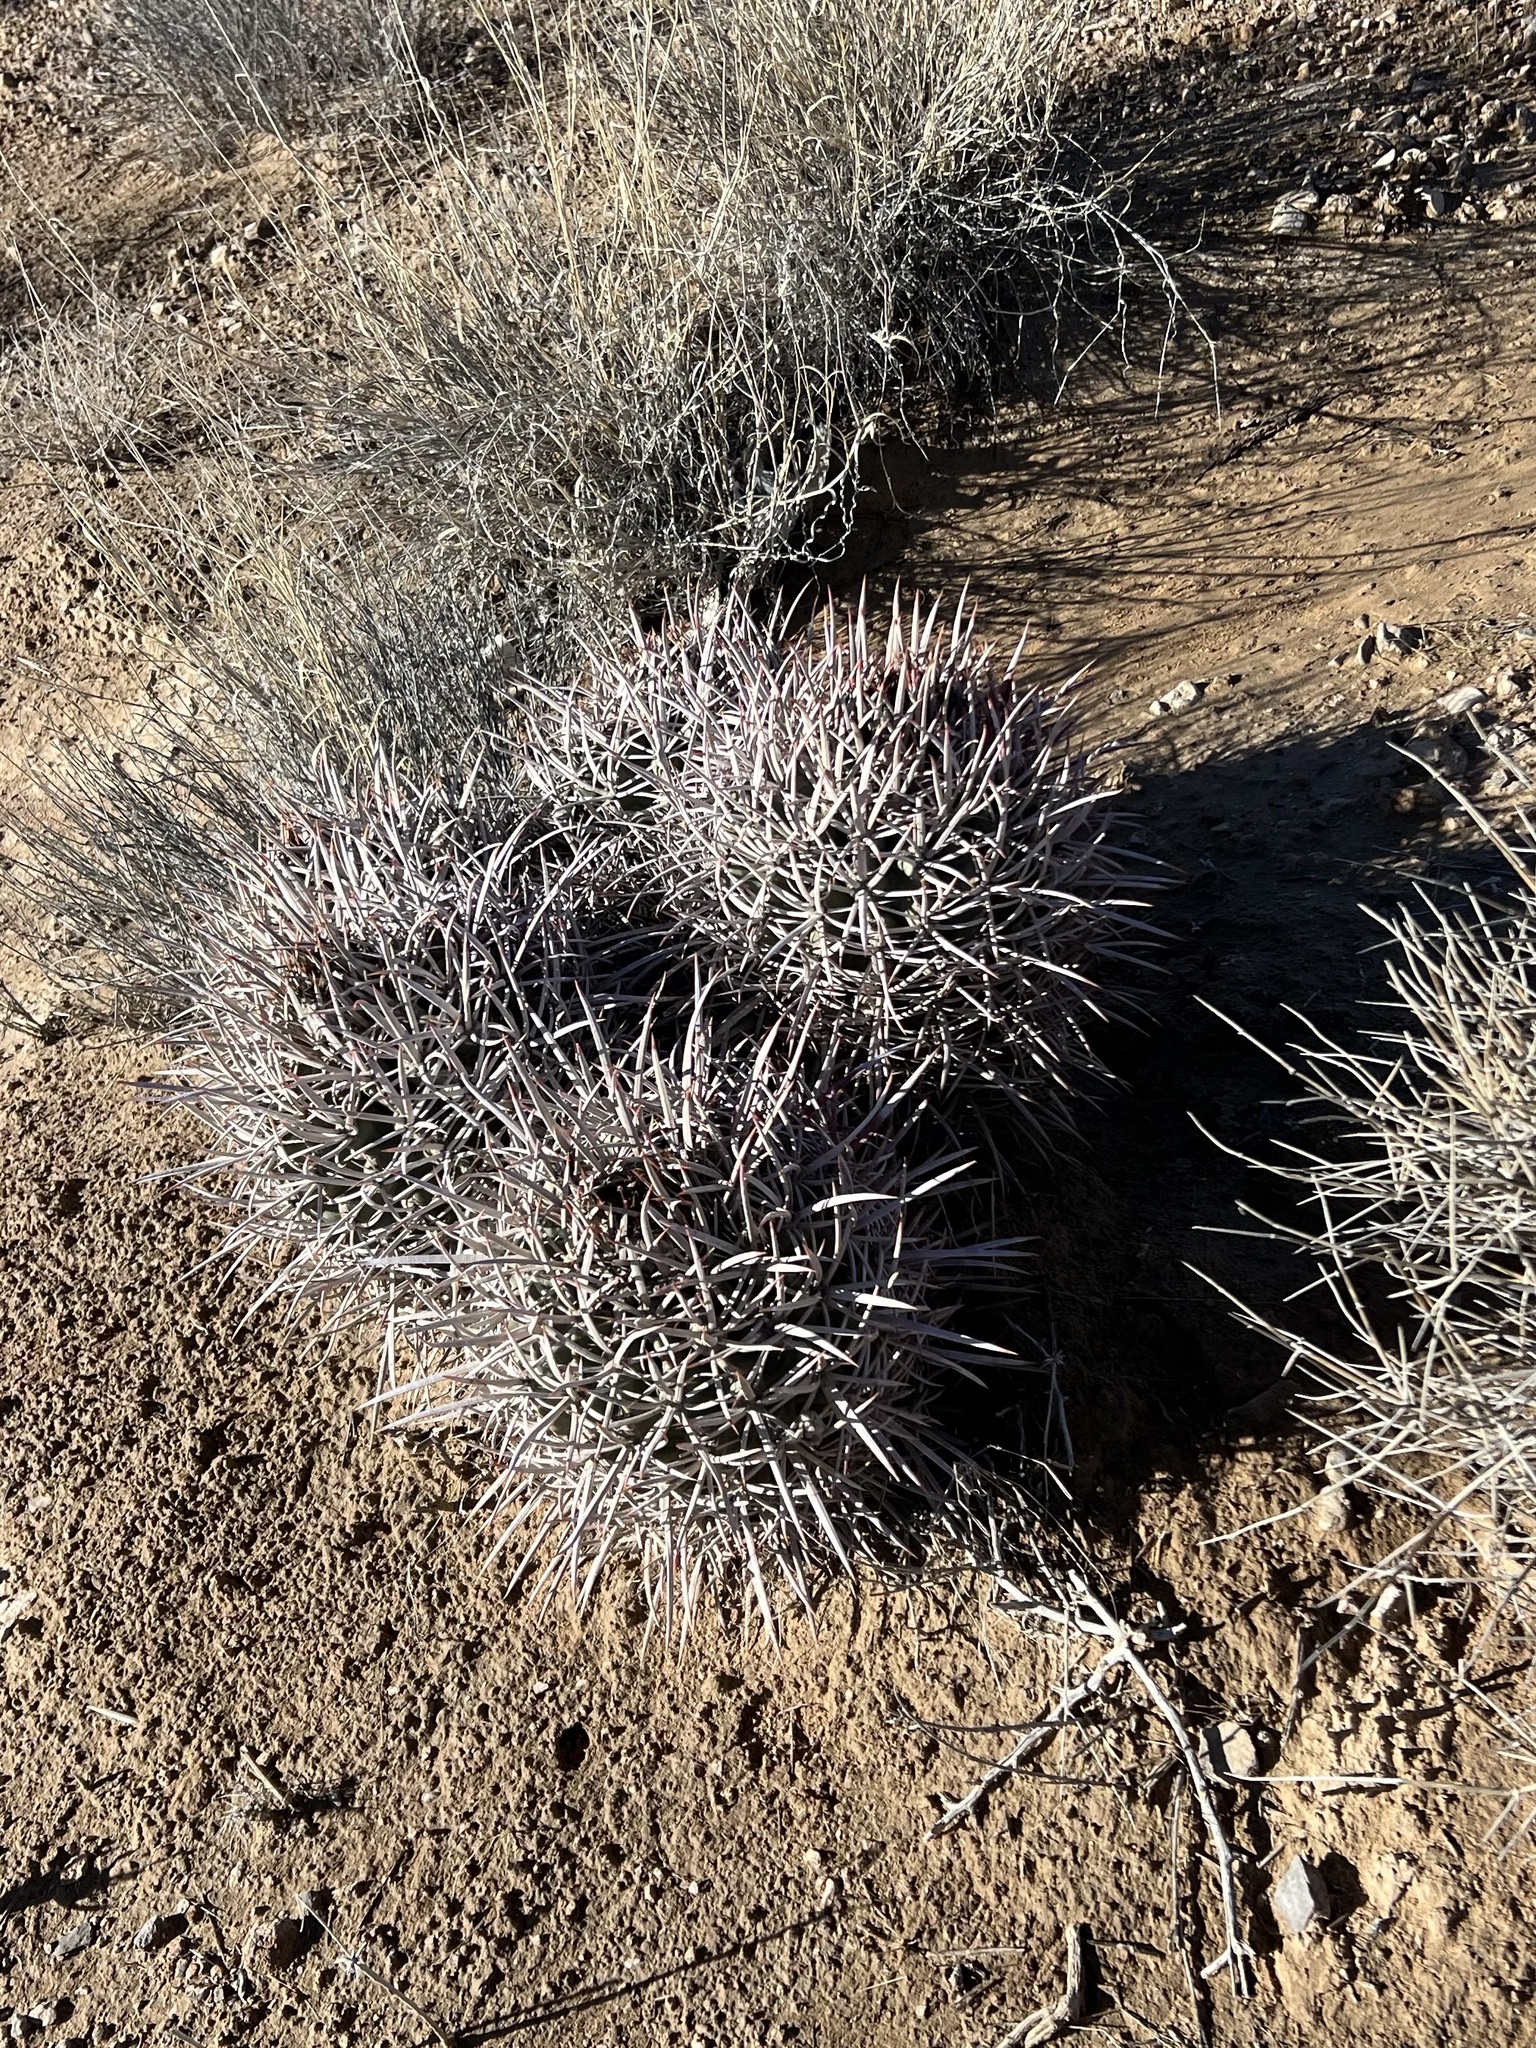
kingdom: Plantae
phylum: Tracheophyta
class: Magnoliopsida
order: Caryophyllales
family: Cactaceae
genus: Echinocactus
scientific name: Echinocactus polycephalus
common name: Cottontop cactus
